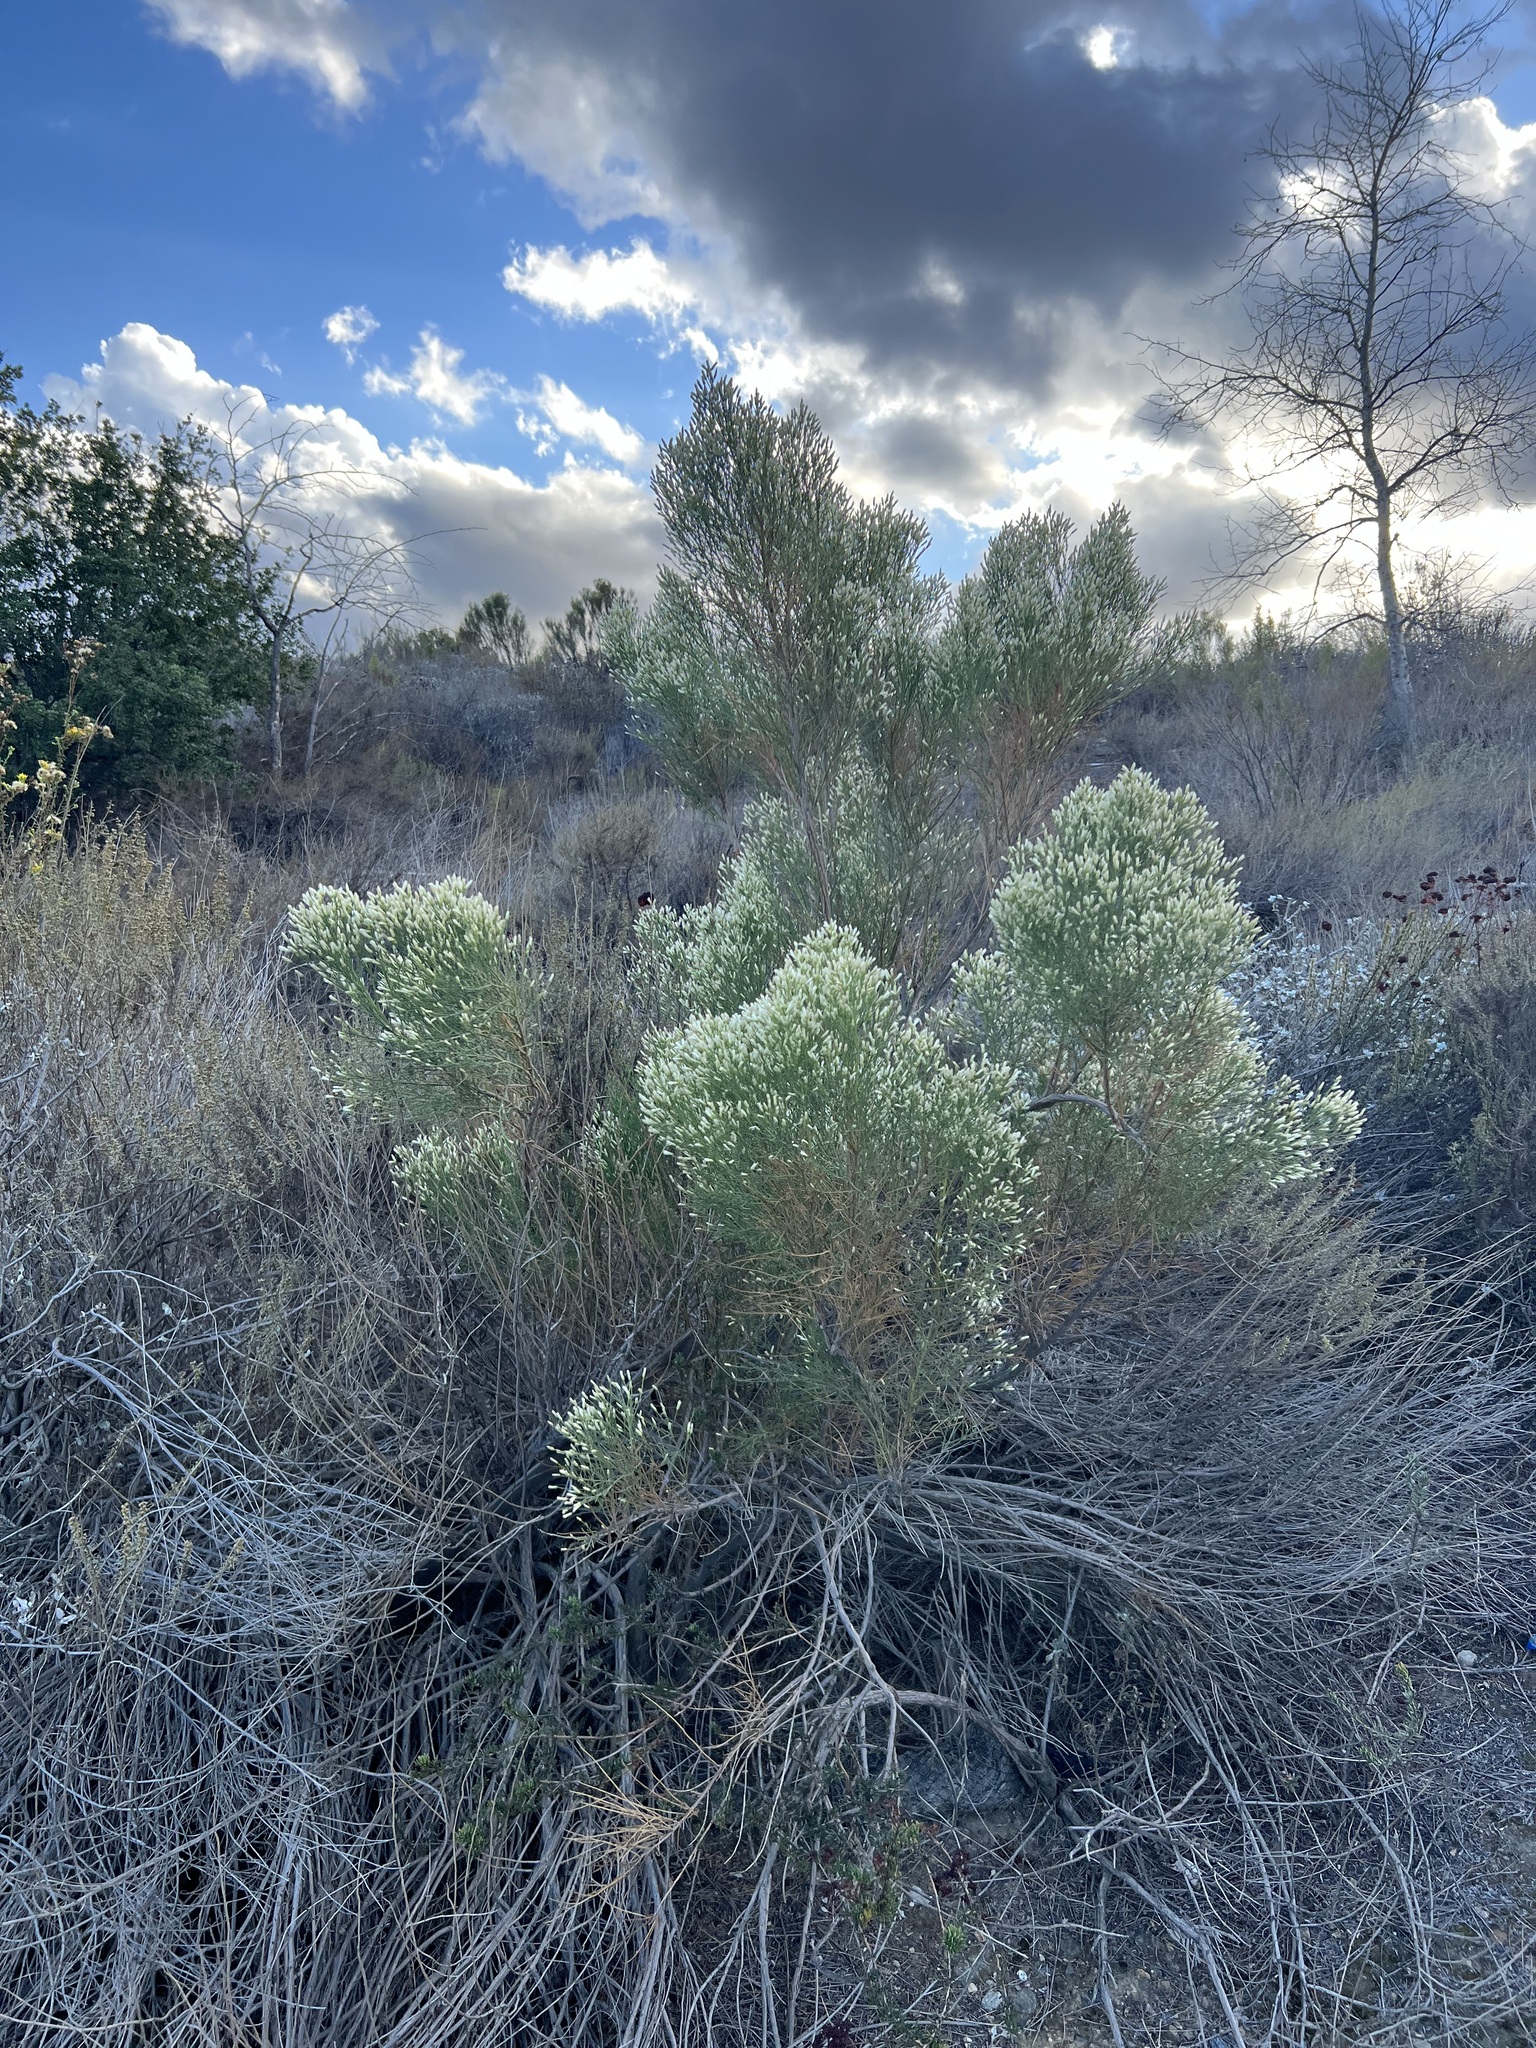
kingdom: Plantae
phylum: Tracheophyta
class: Magnoliopsida
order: Asterales
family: Asteraceae
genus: Baccharis
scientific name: Baccharis sarothroides
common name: Desert-broom
